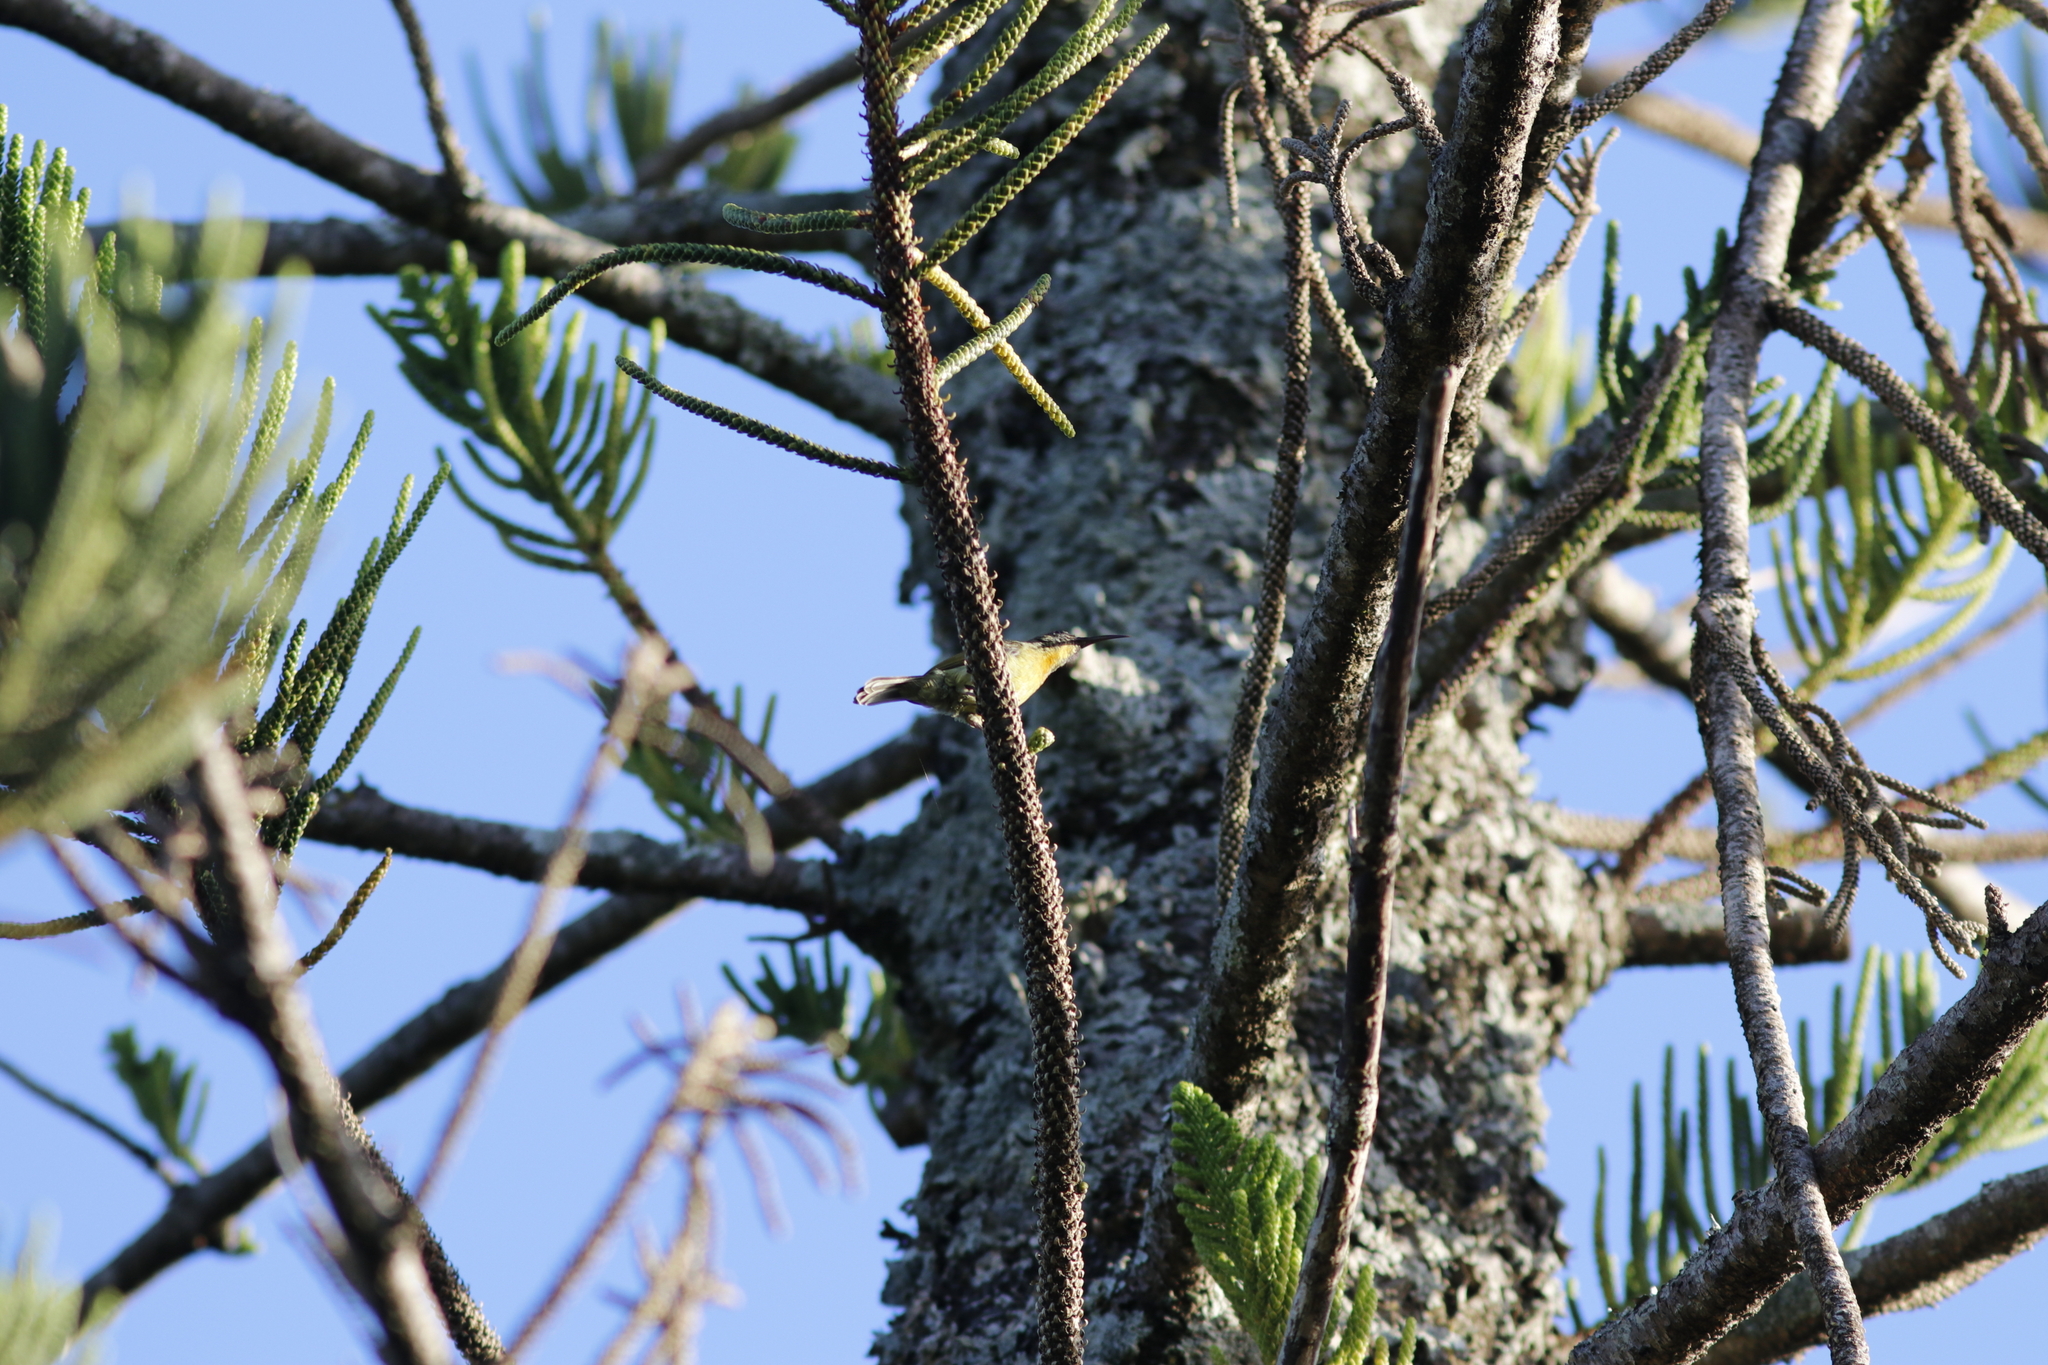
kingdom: Animalia
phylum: Chordata
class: Aves
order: Passeriformes
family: Nectariniidae
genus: Cyanomitra
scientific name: Cyanomitra olivacea
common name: Olive sunbird
